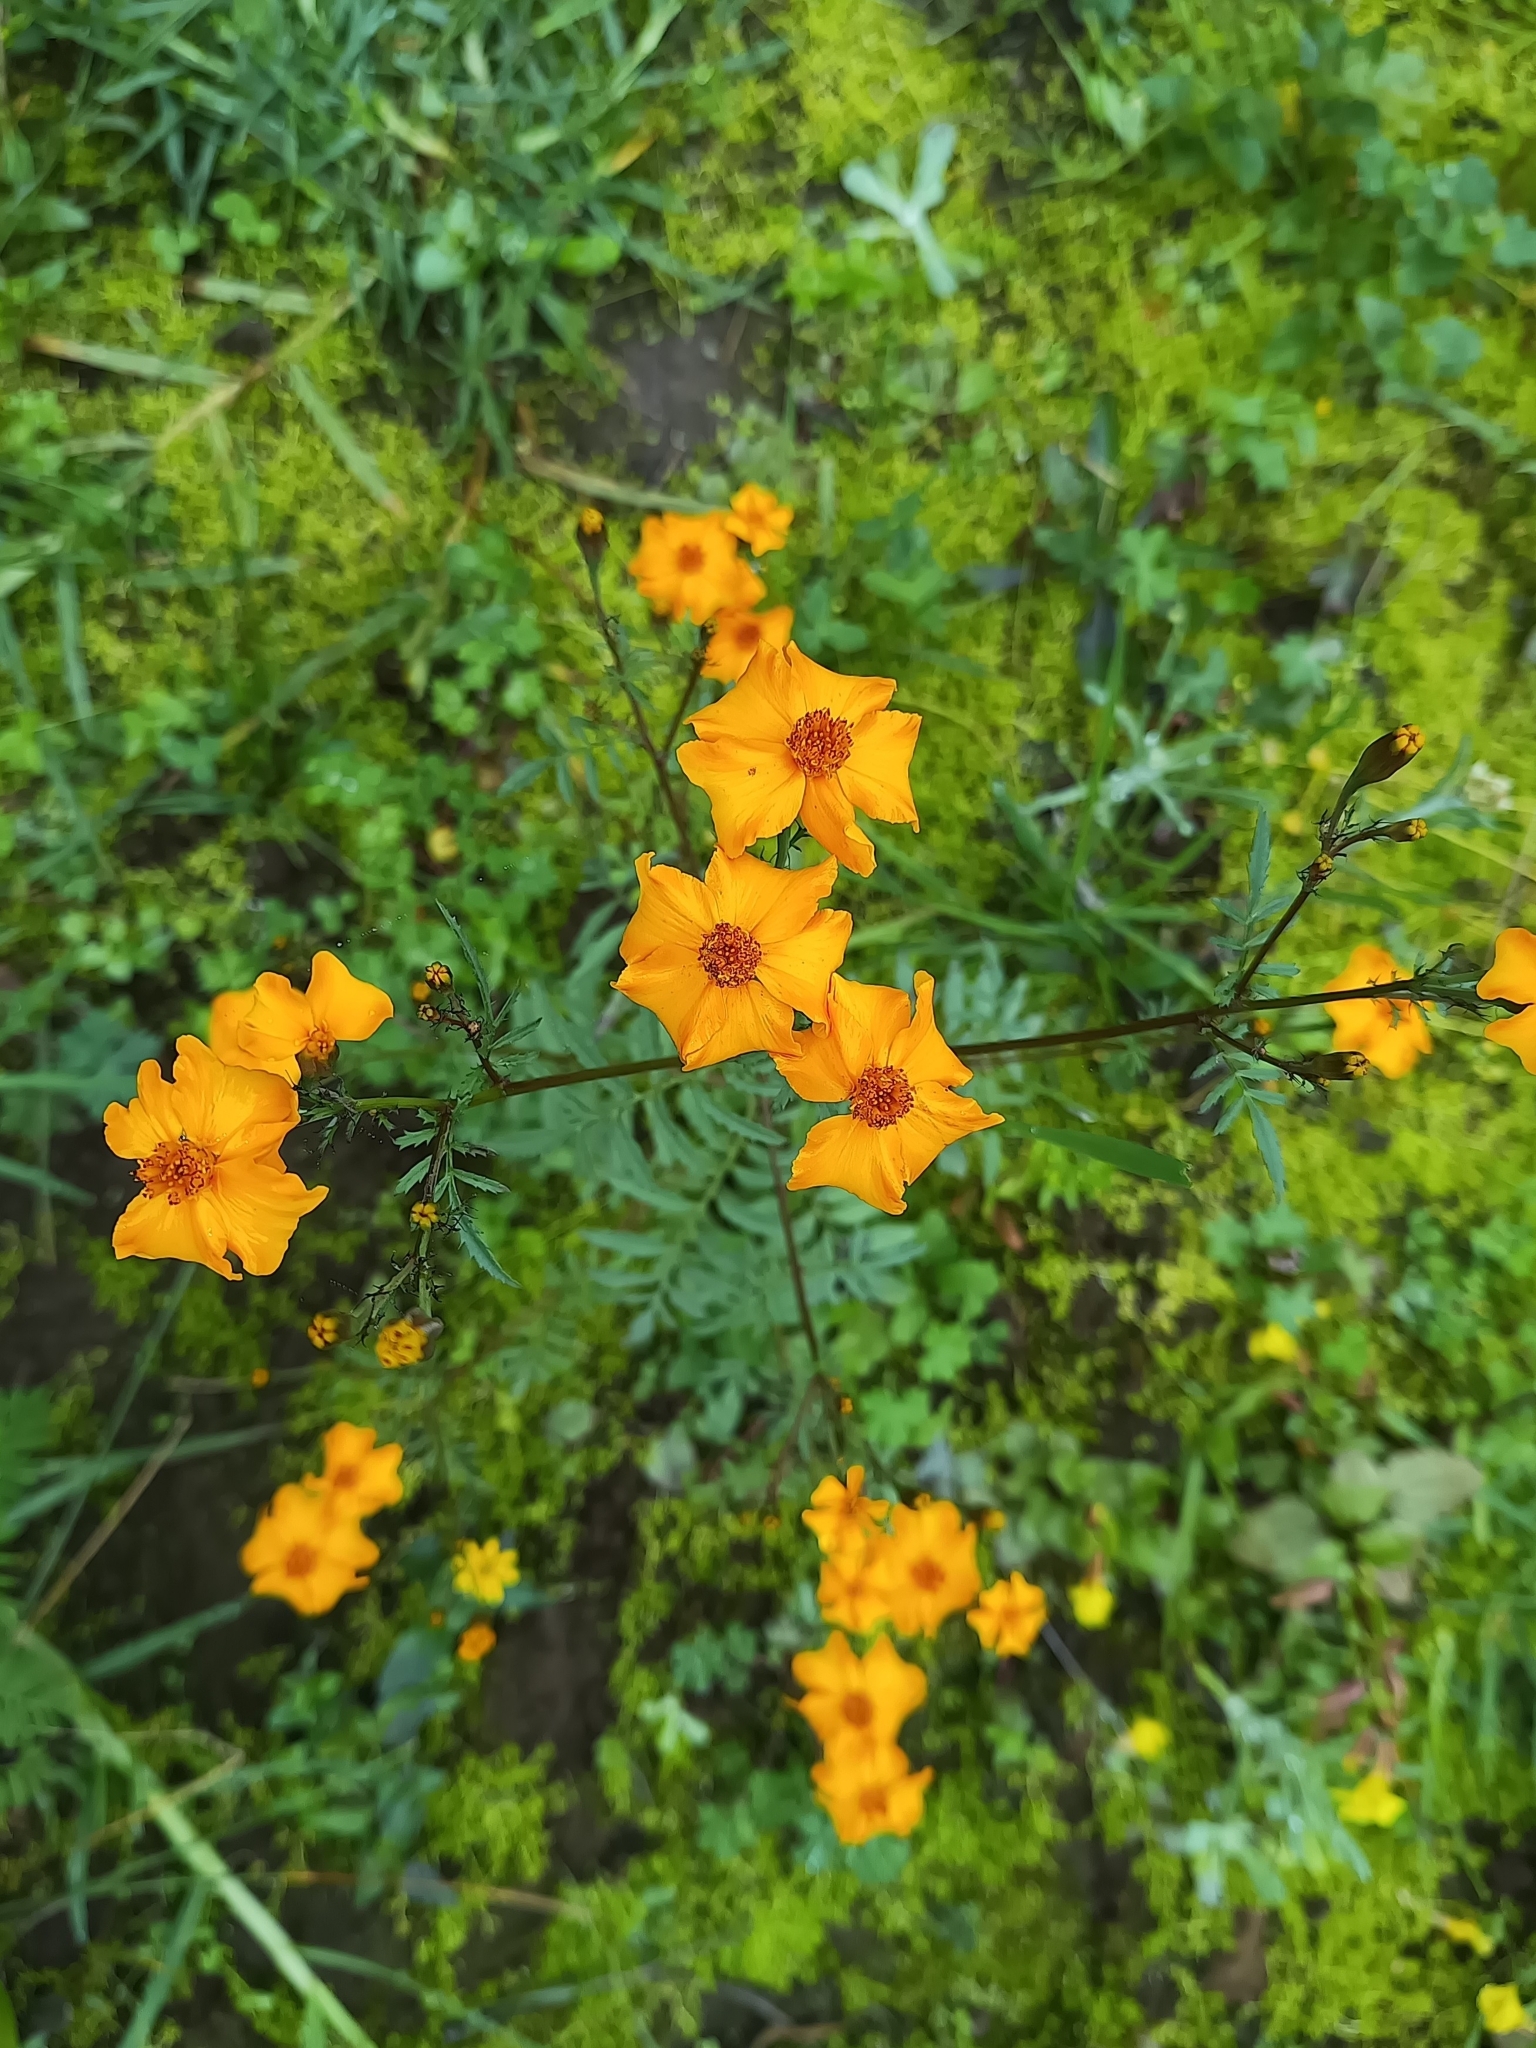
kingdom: Plantae
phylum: Tracheophyta
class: Magnoliopsida
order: Asterales
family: Asteraceae
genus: Tagetes
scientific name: Tagetes tenuifolia
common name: Signet marigold
